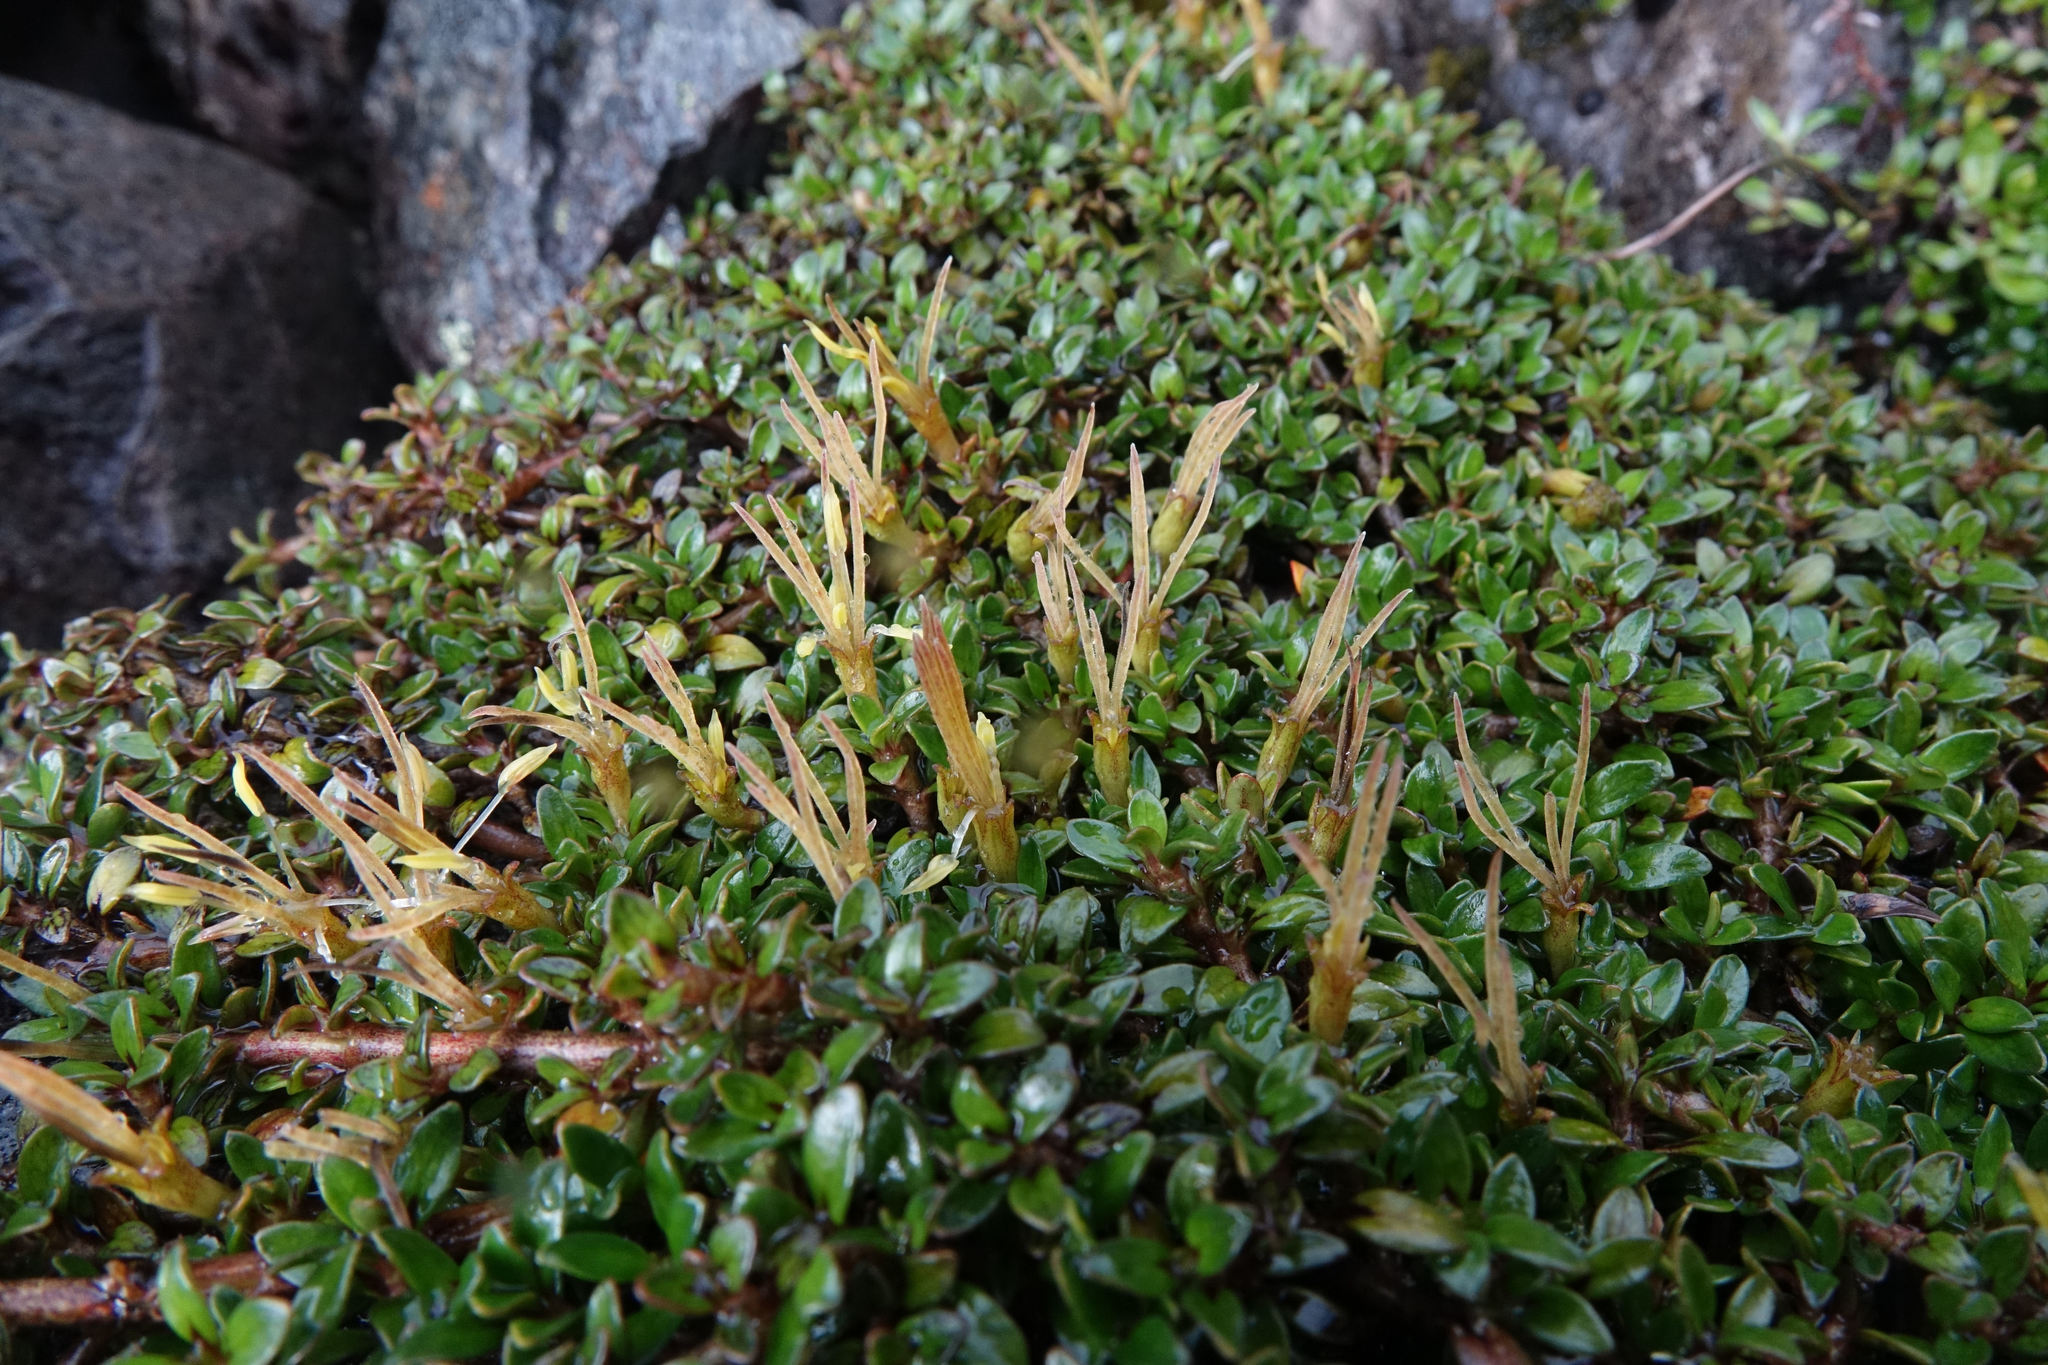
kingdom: Plantae
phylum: Tracheophyta
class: Magnoliopsida
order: Gentianales
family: Rubiaceae
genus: Coprosma
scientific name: Coprosma perpusilla
